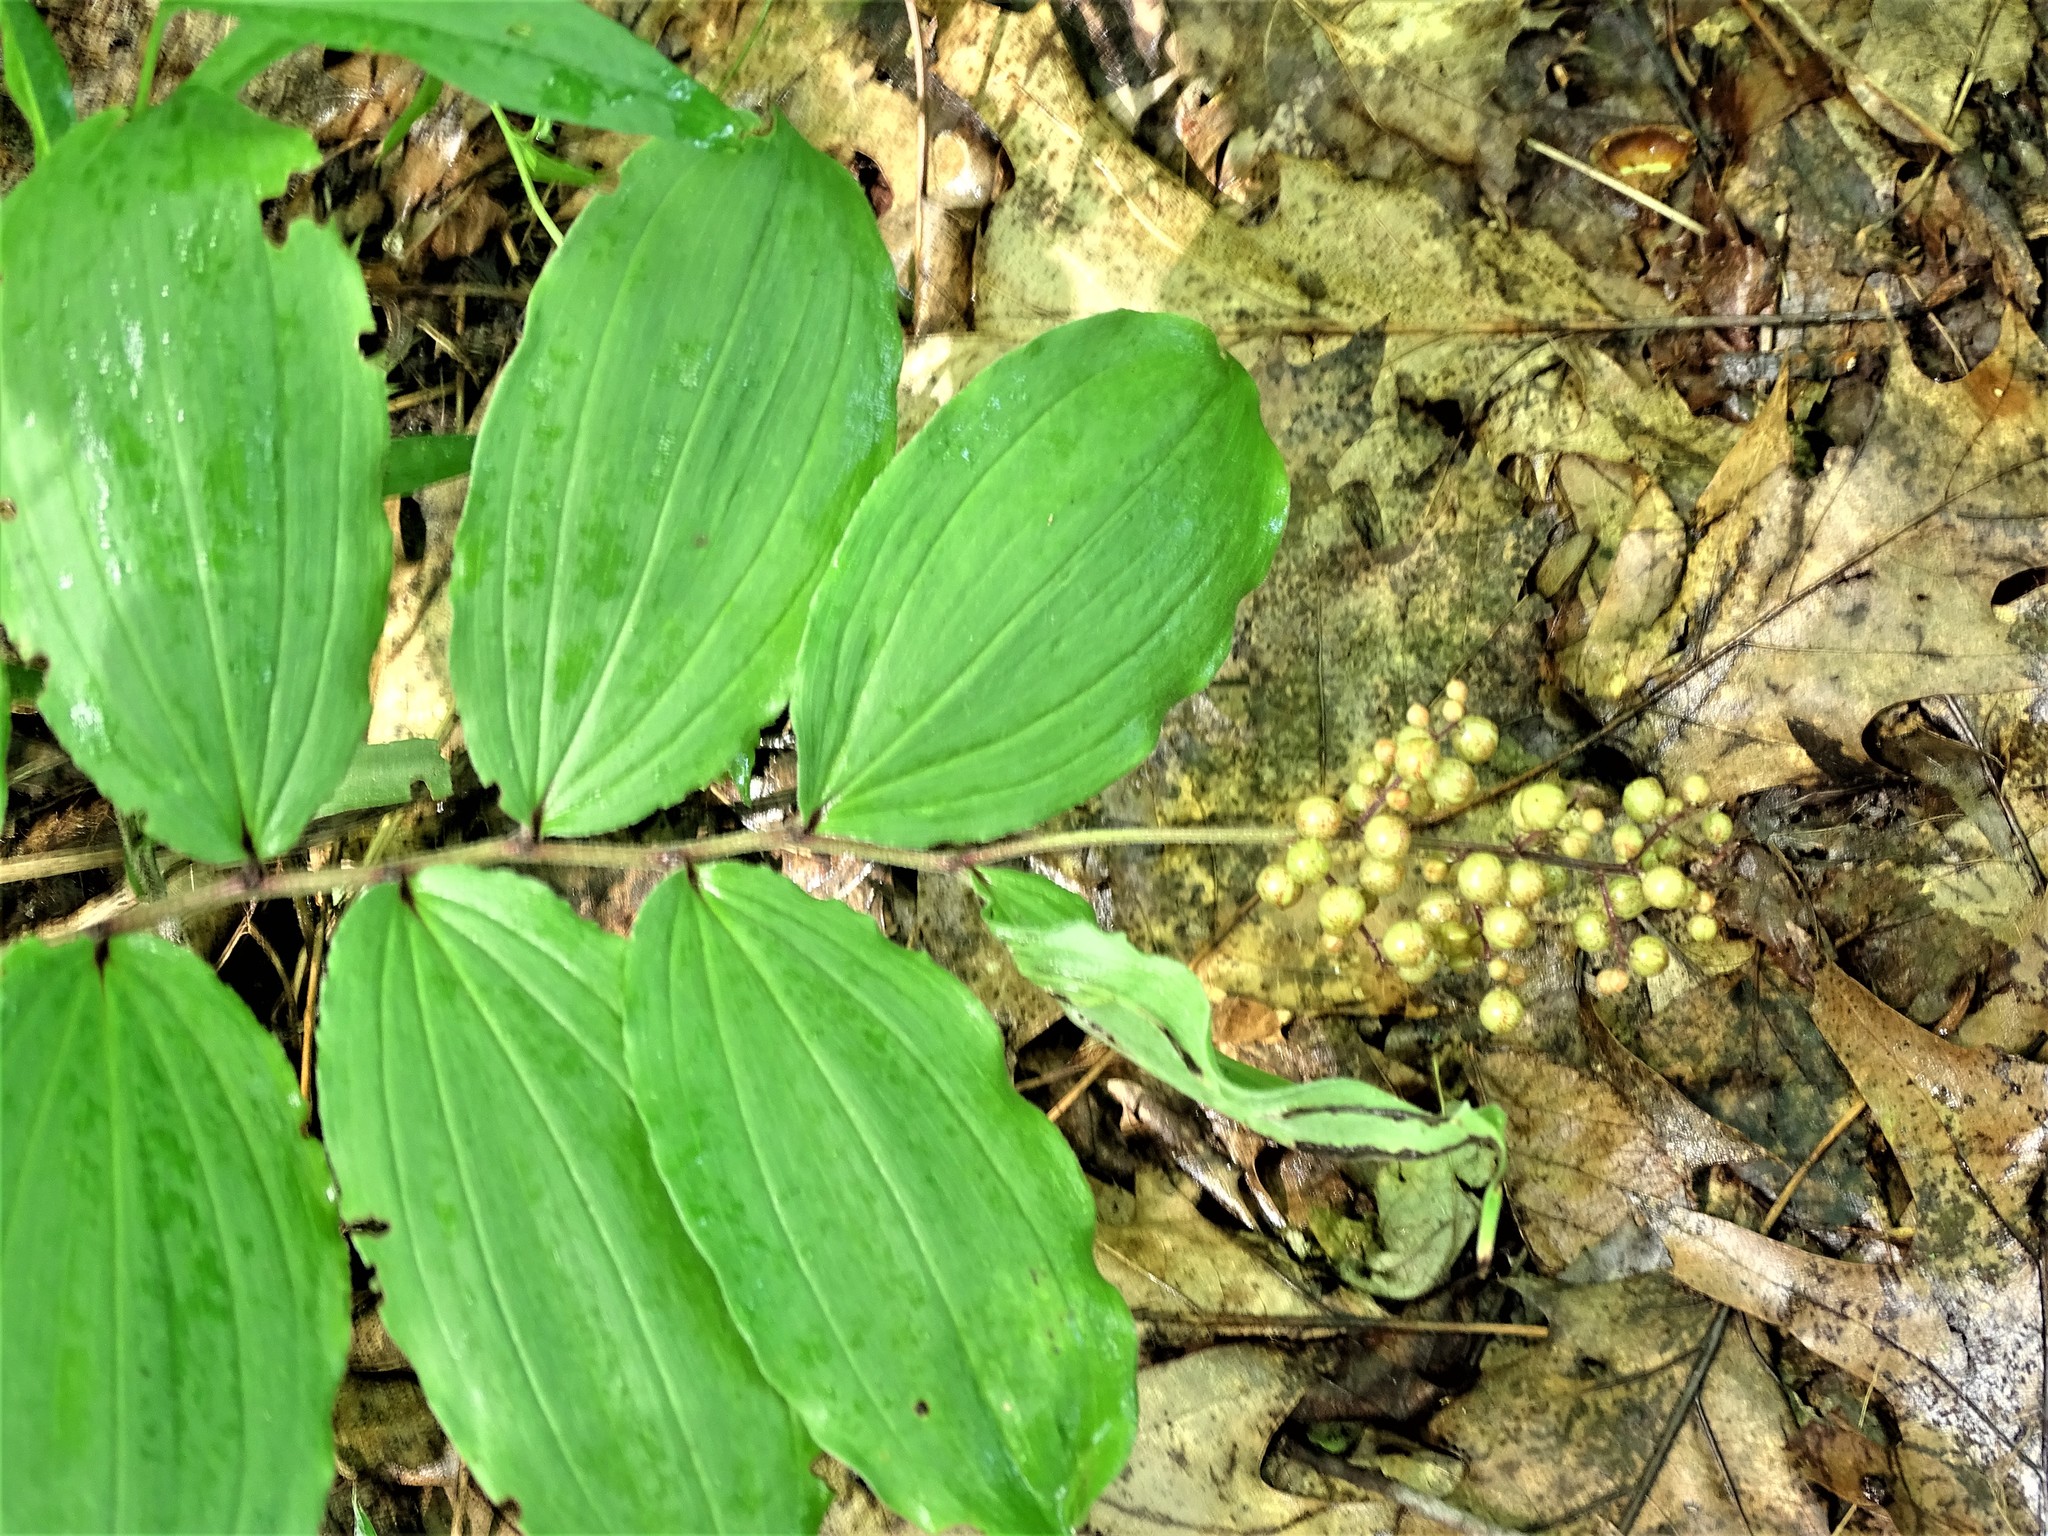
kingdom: Plantae
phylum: Tracheophyta
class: Liliopsida
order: Asparagales
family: Asparagaceae
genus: Maianthemum
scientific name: Maianthemum racemosum
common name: False spikenard
